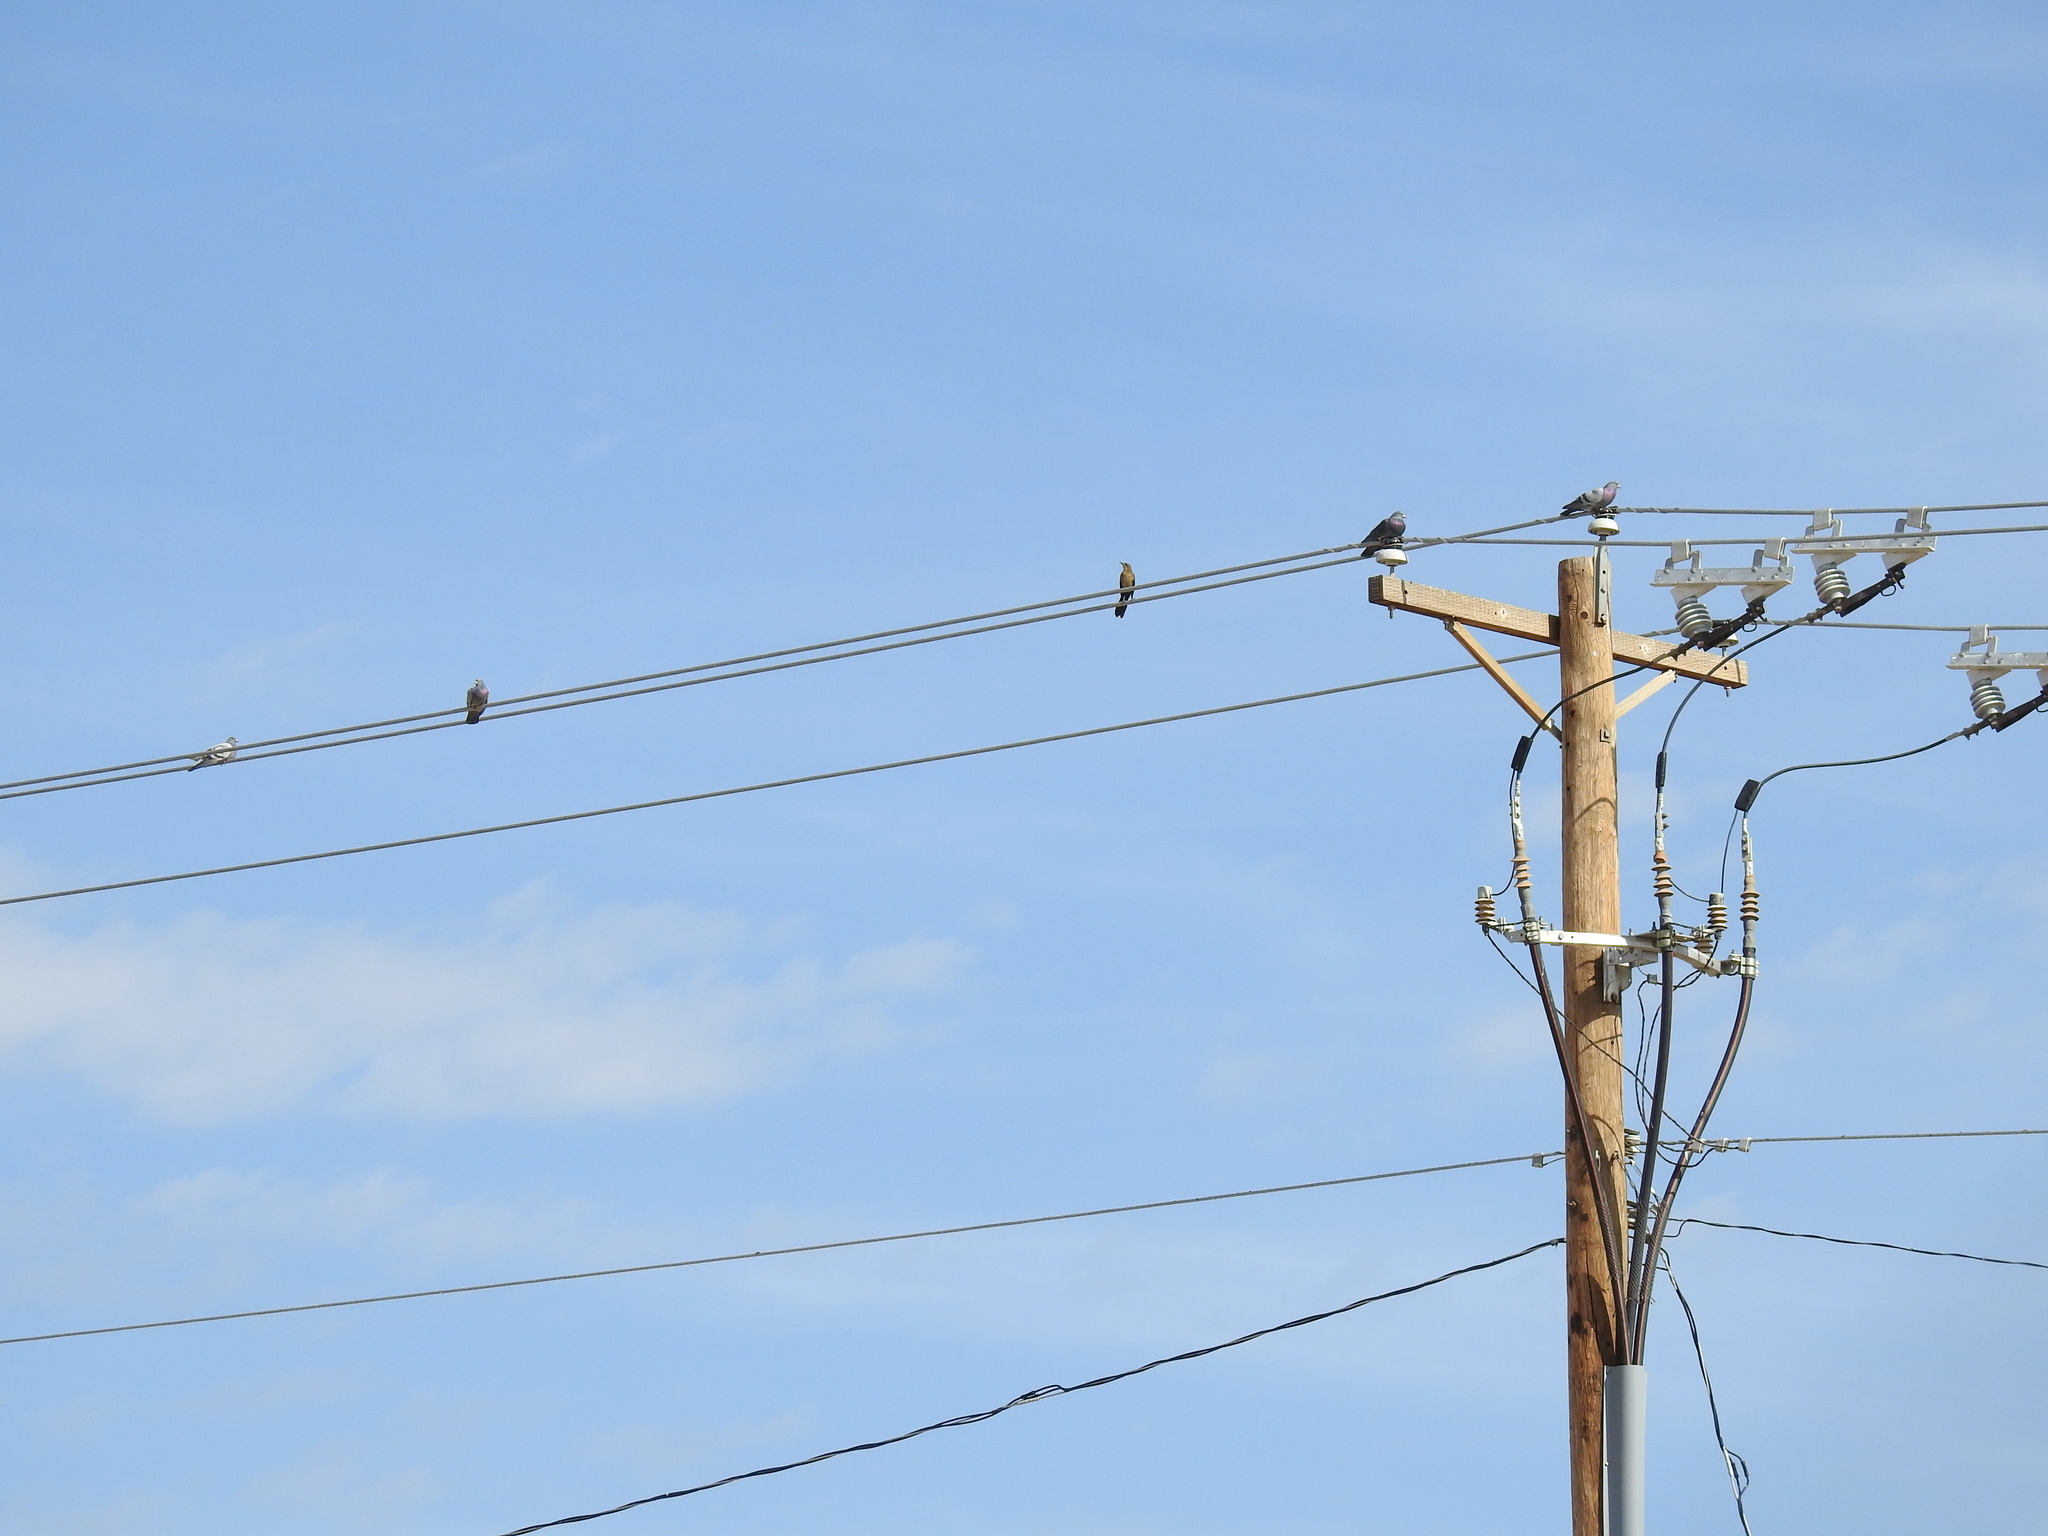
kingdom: Animalia
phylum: Chordata
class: Aves
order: Columbiformes
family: Columbidae
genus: Columba
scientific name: Columba livia
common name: Rock pigeon
